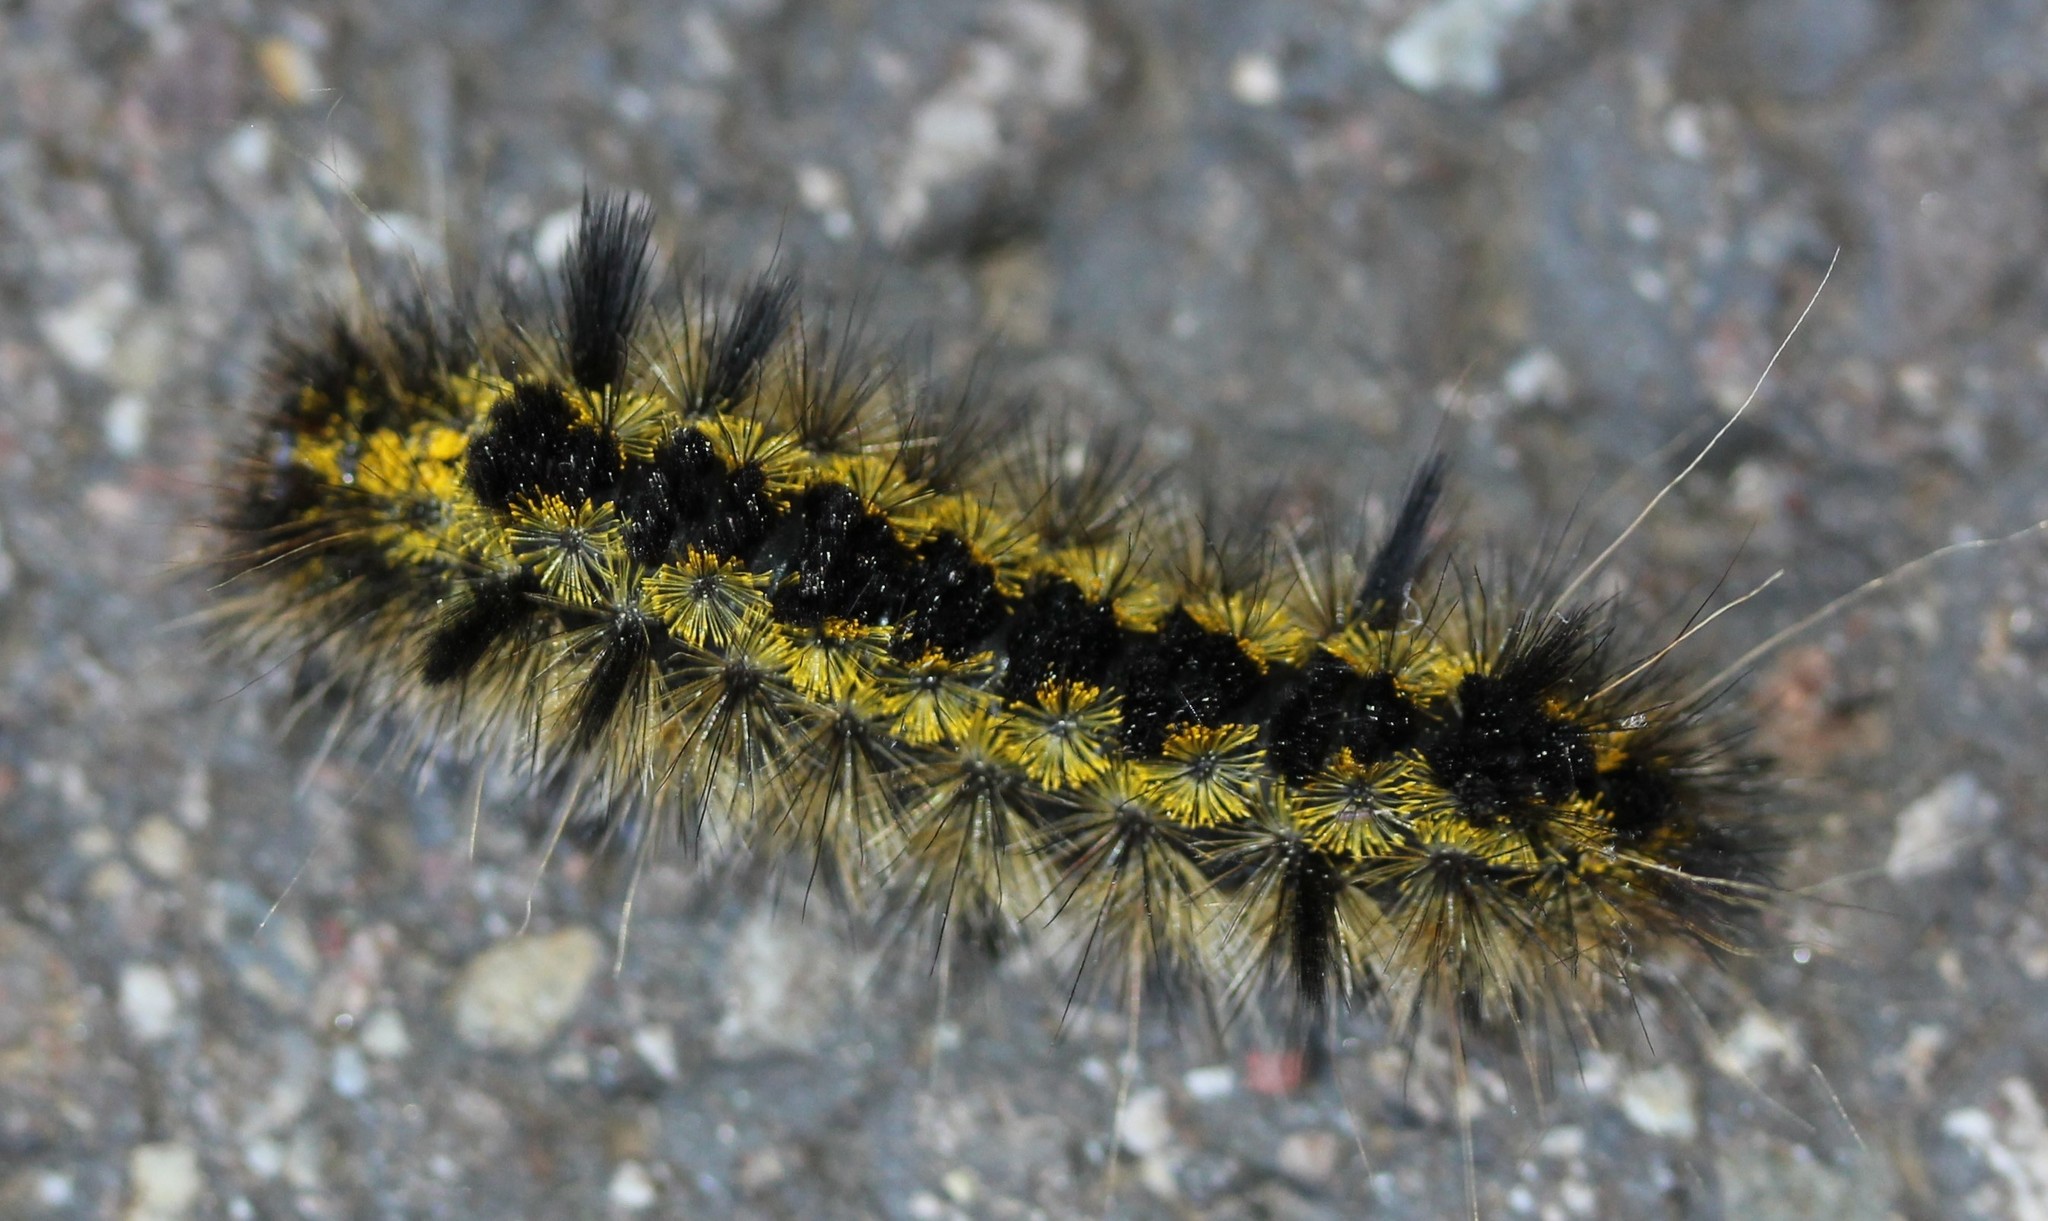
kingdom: Animalia
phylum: Arthropoda
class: Insecta
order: Lepidoptera
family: Erebidae
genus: Lophocampa
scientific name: Lophocampa argentata
